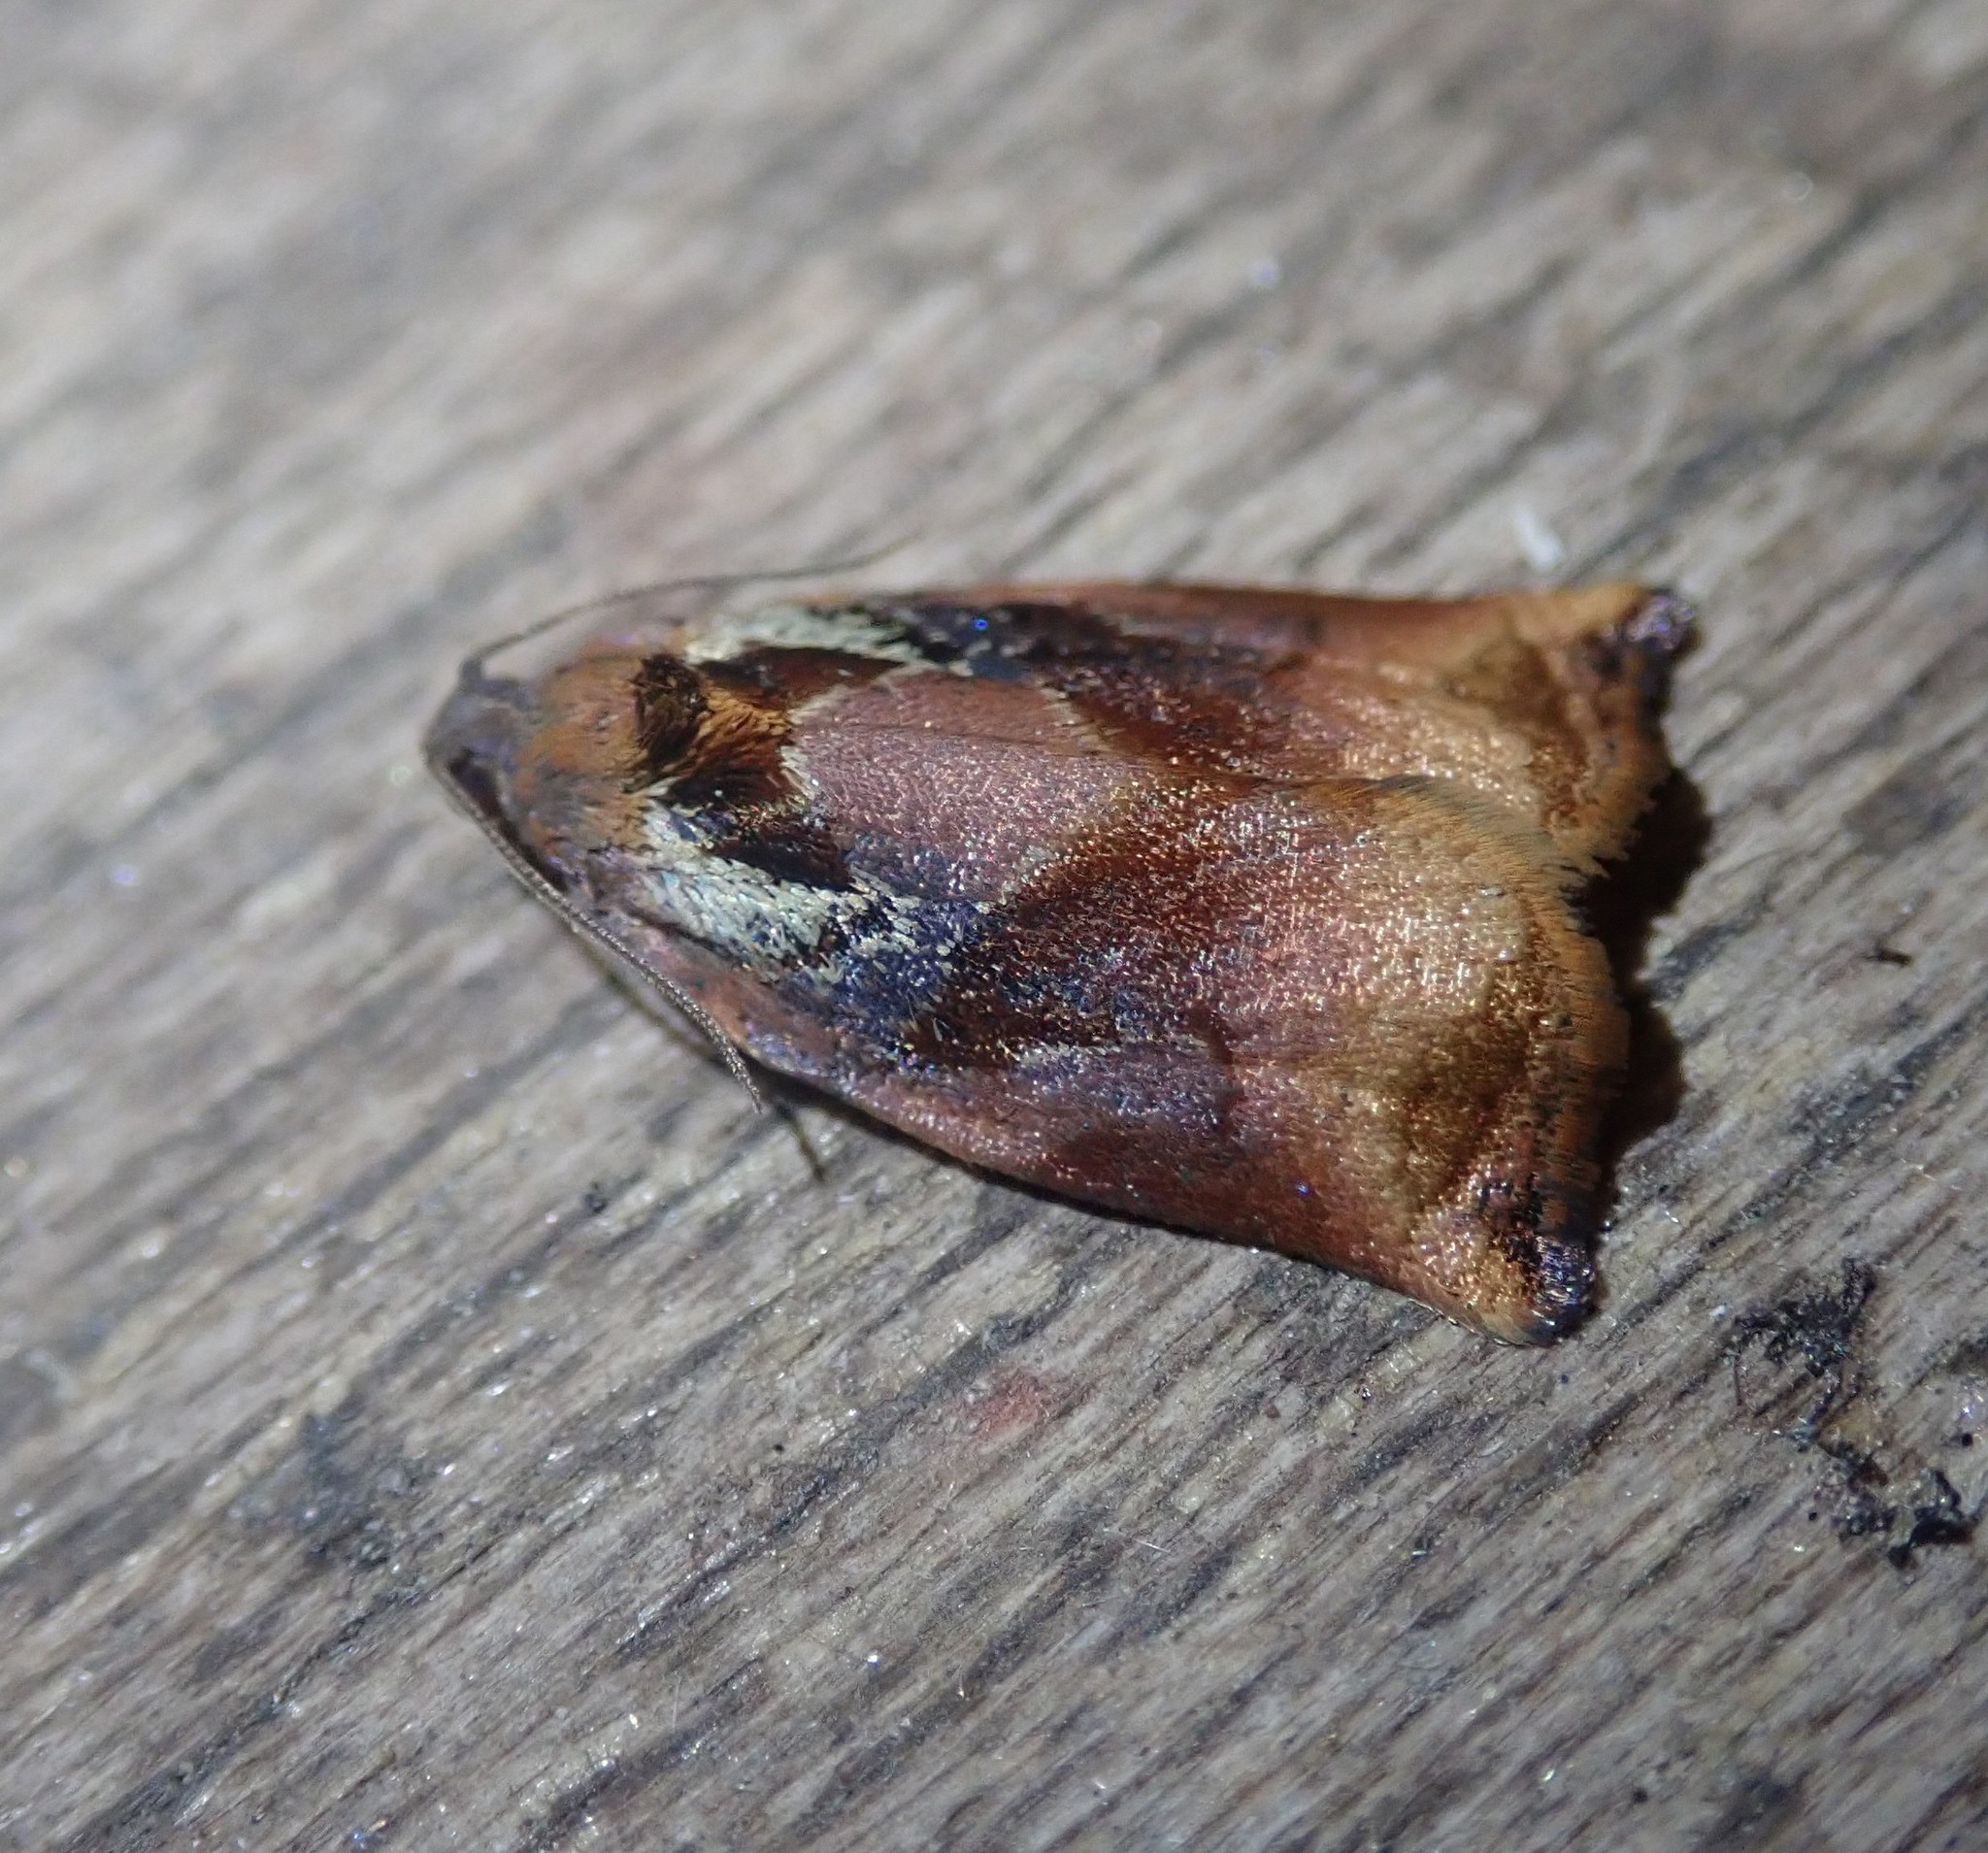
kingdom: Animalia
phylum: Arthropoda
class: Insecta
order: Lepidoptera
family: Tortricidae
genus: Archips
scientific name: Archips podana
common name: Large fruit-tree tortrix
